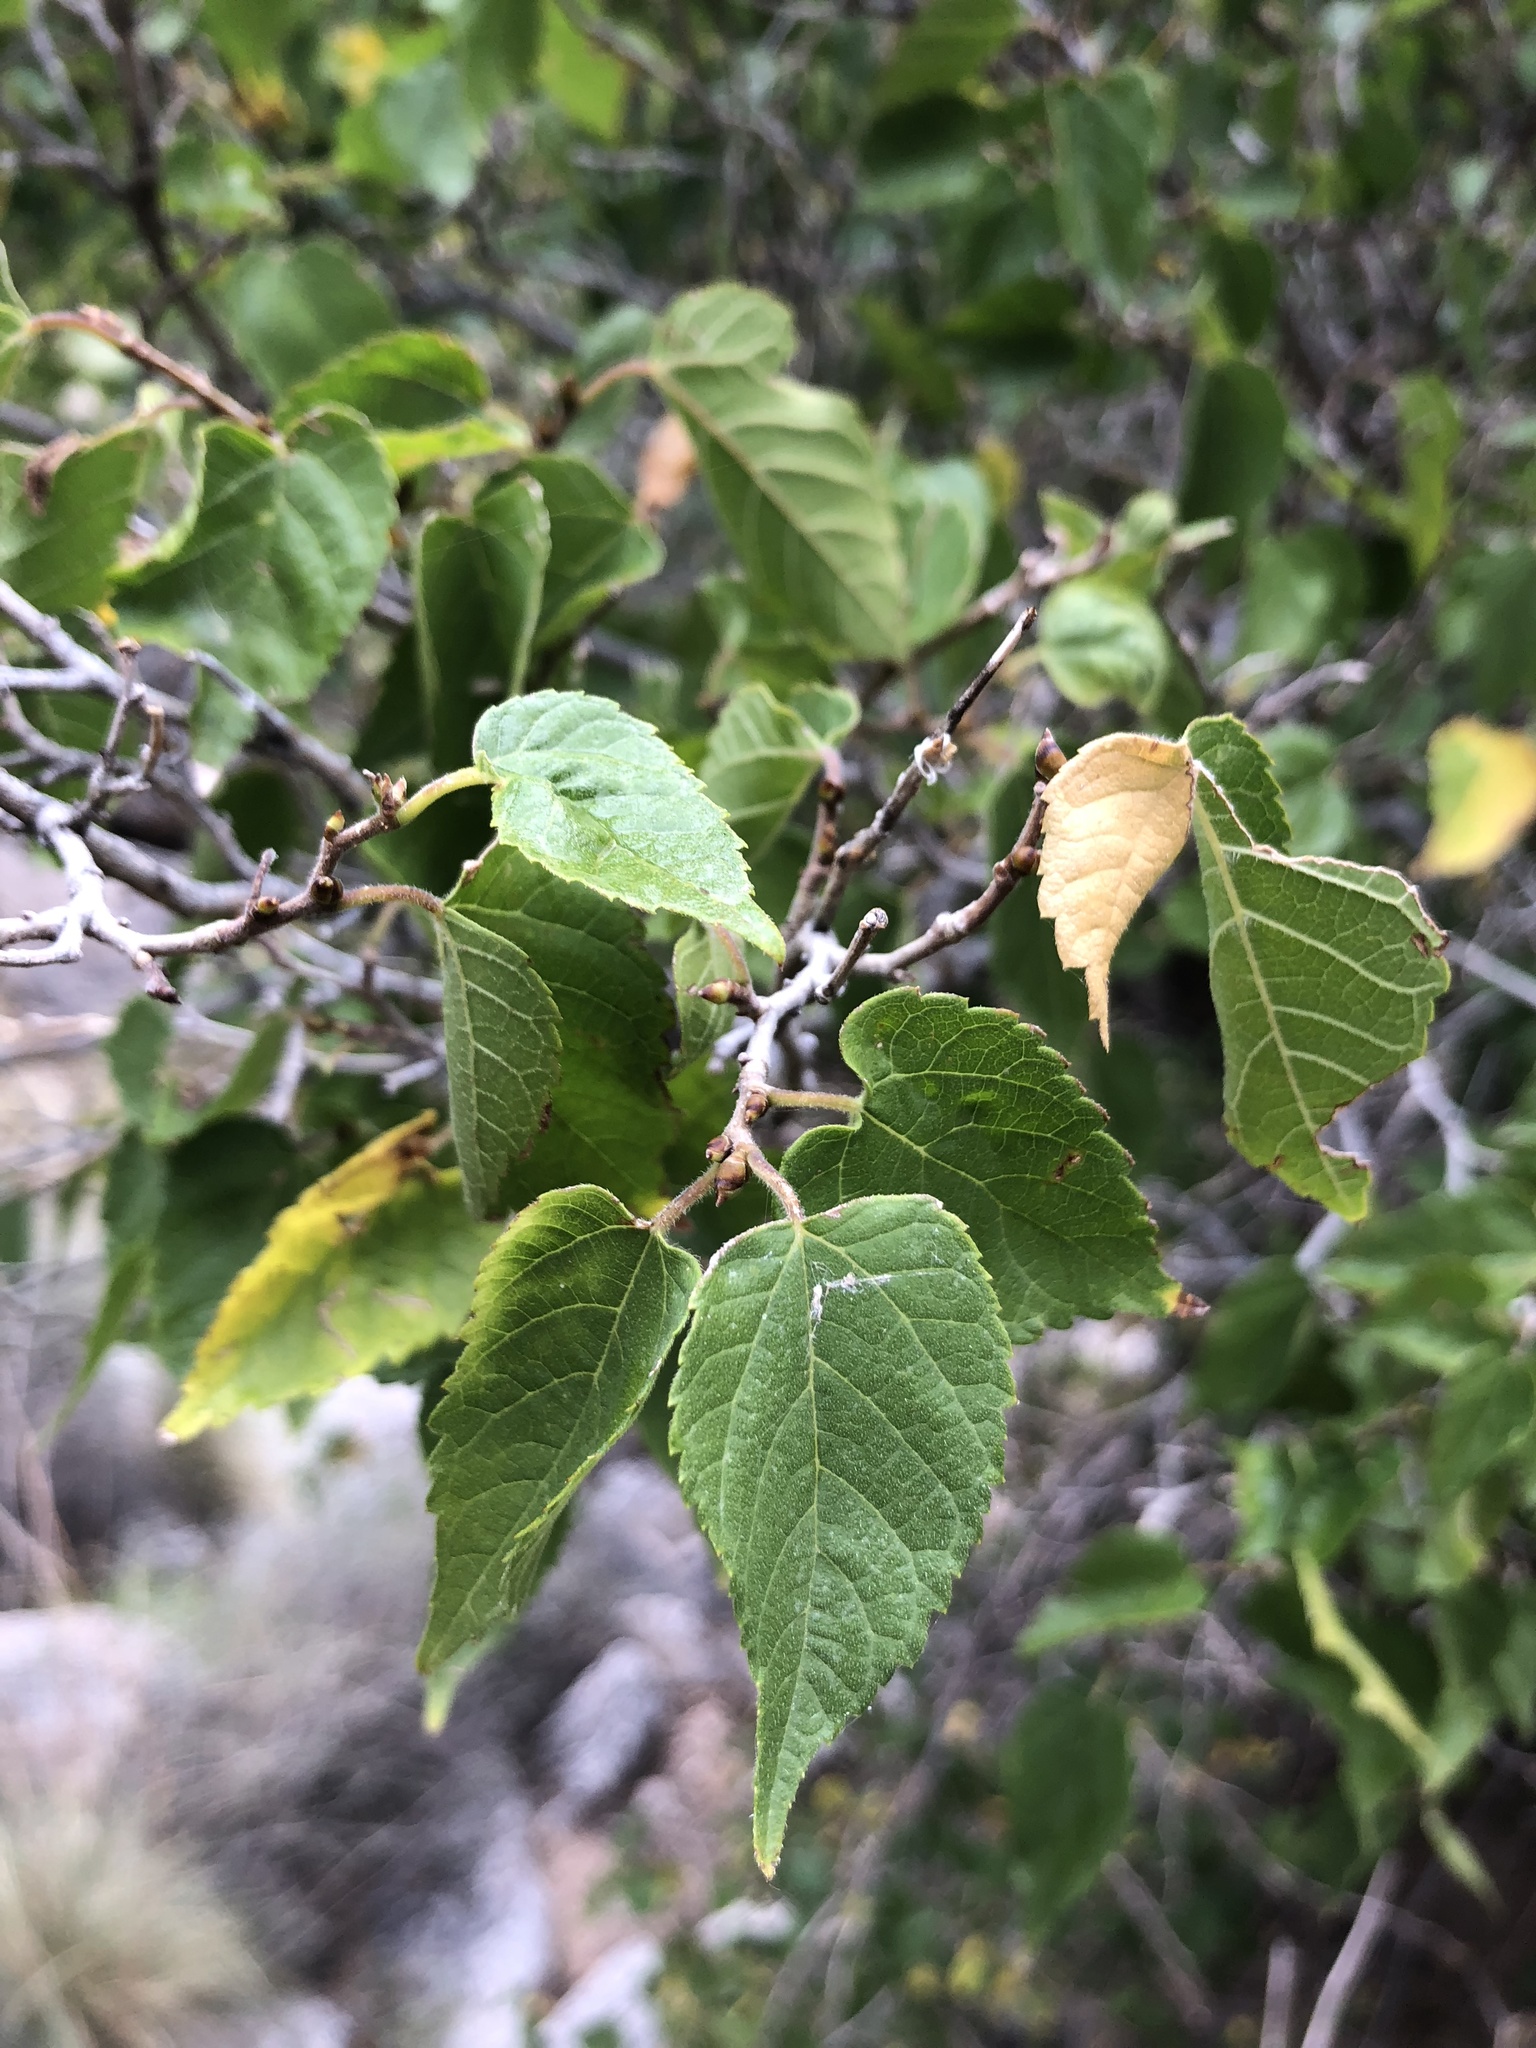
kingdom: Plantae
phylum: Tracheophyta
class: Magnoliopsida
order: Rosales
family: Moraceae
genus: Morus
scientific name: Morus microphylla
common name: Mexican mulberry
